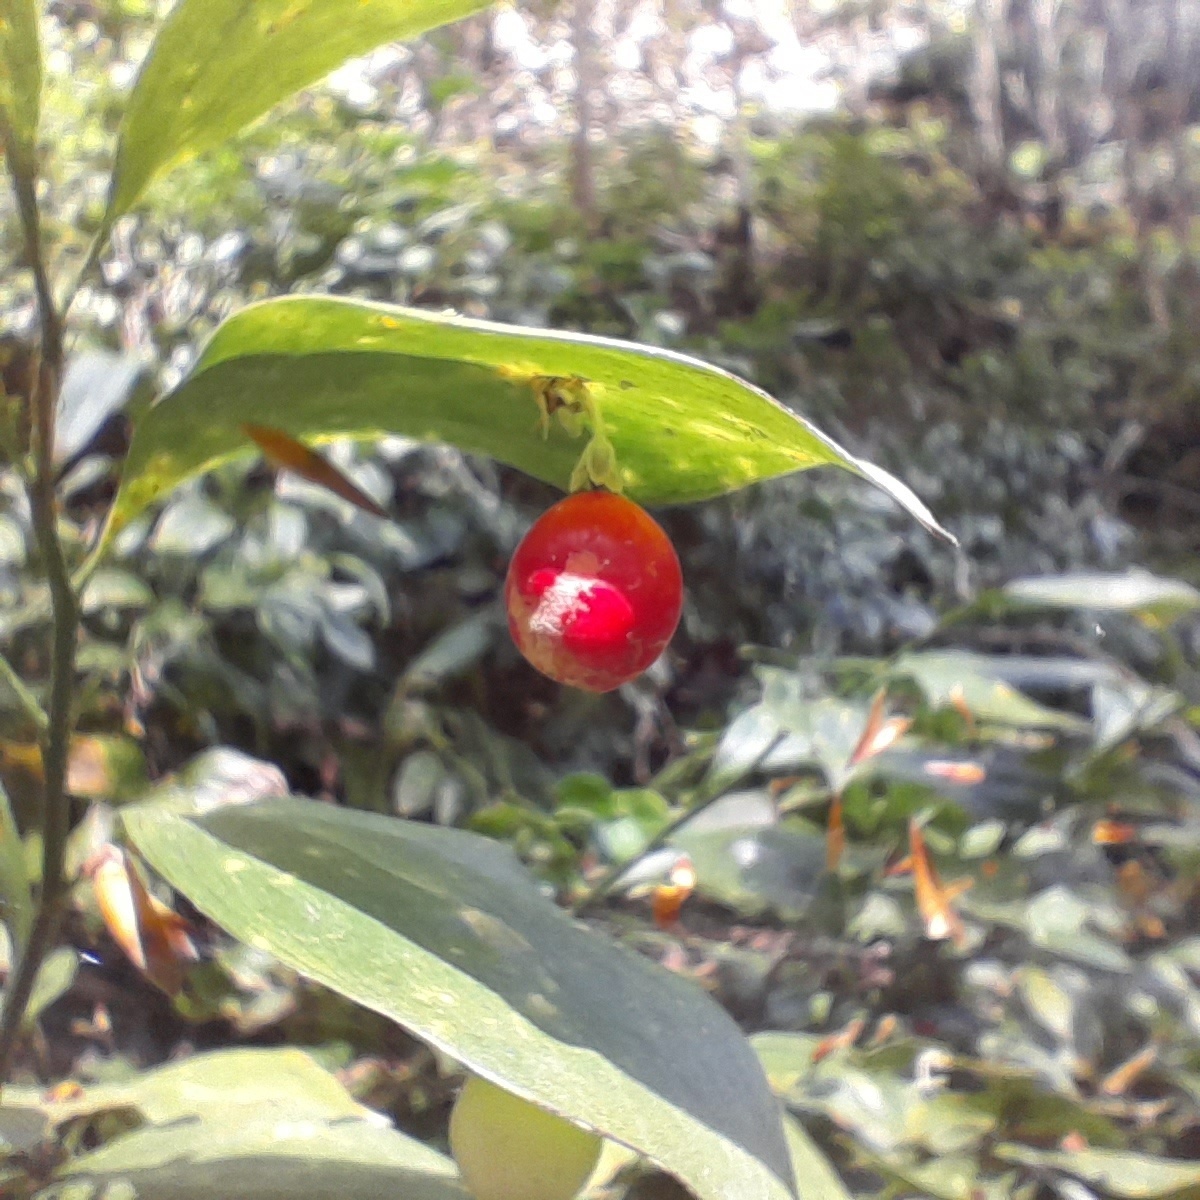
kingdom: Plantae
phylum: Tracheophyta
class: Liliopsida
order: Asparagales
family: Asparagaceae
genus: Ruscus
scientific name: Ruscus colchicus
